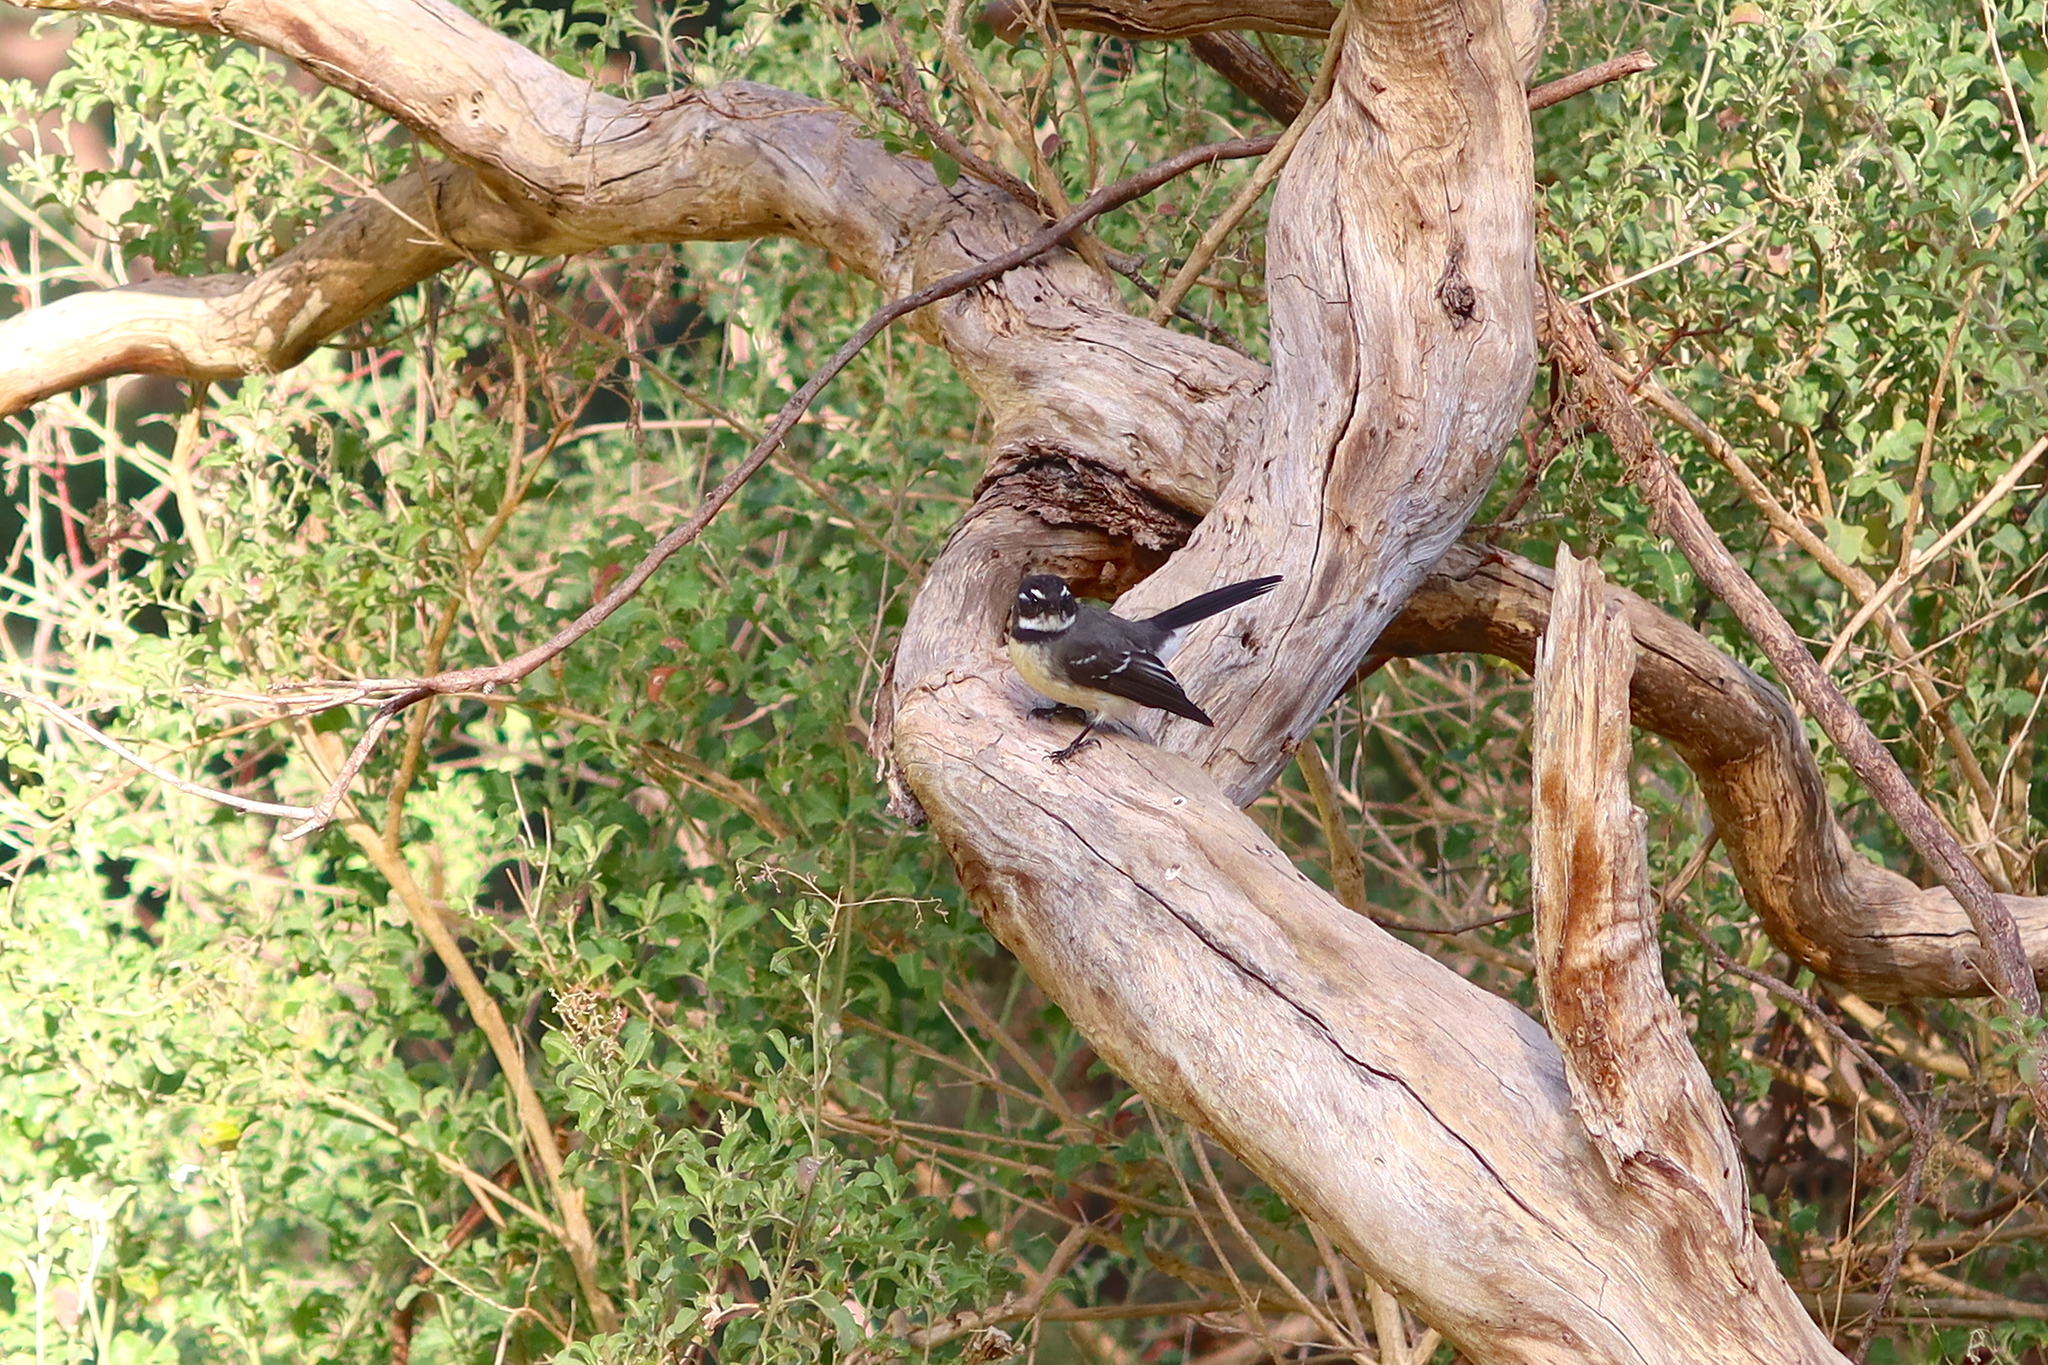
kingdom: Animalia
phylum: Chordata
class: Aves
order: Passeriformes
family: Rhipiduridae
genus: Rhipidura
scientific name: Rhipidura albiscapa
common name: Grey fantail
